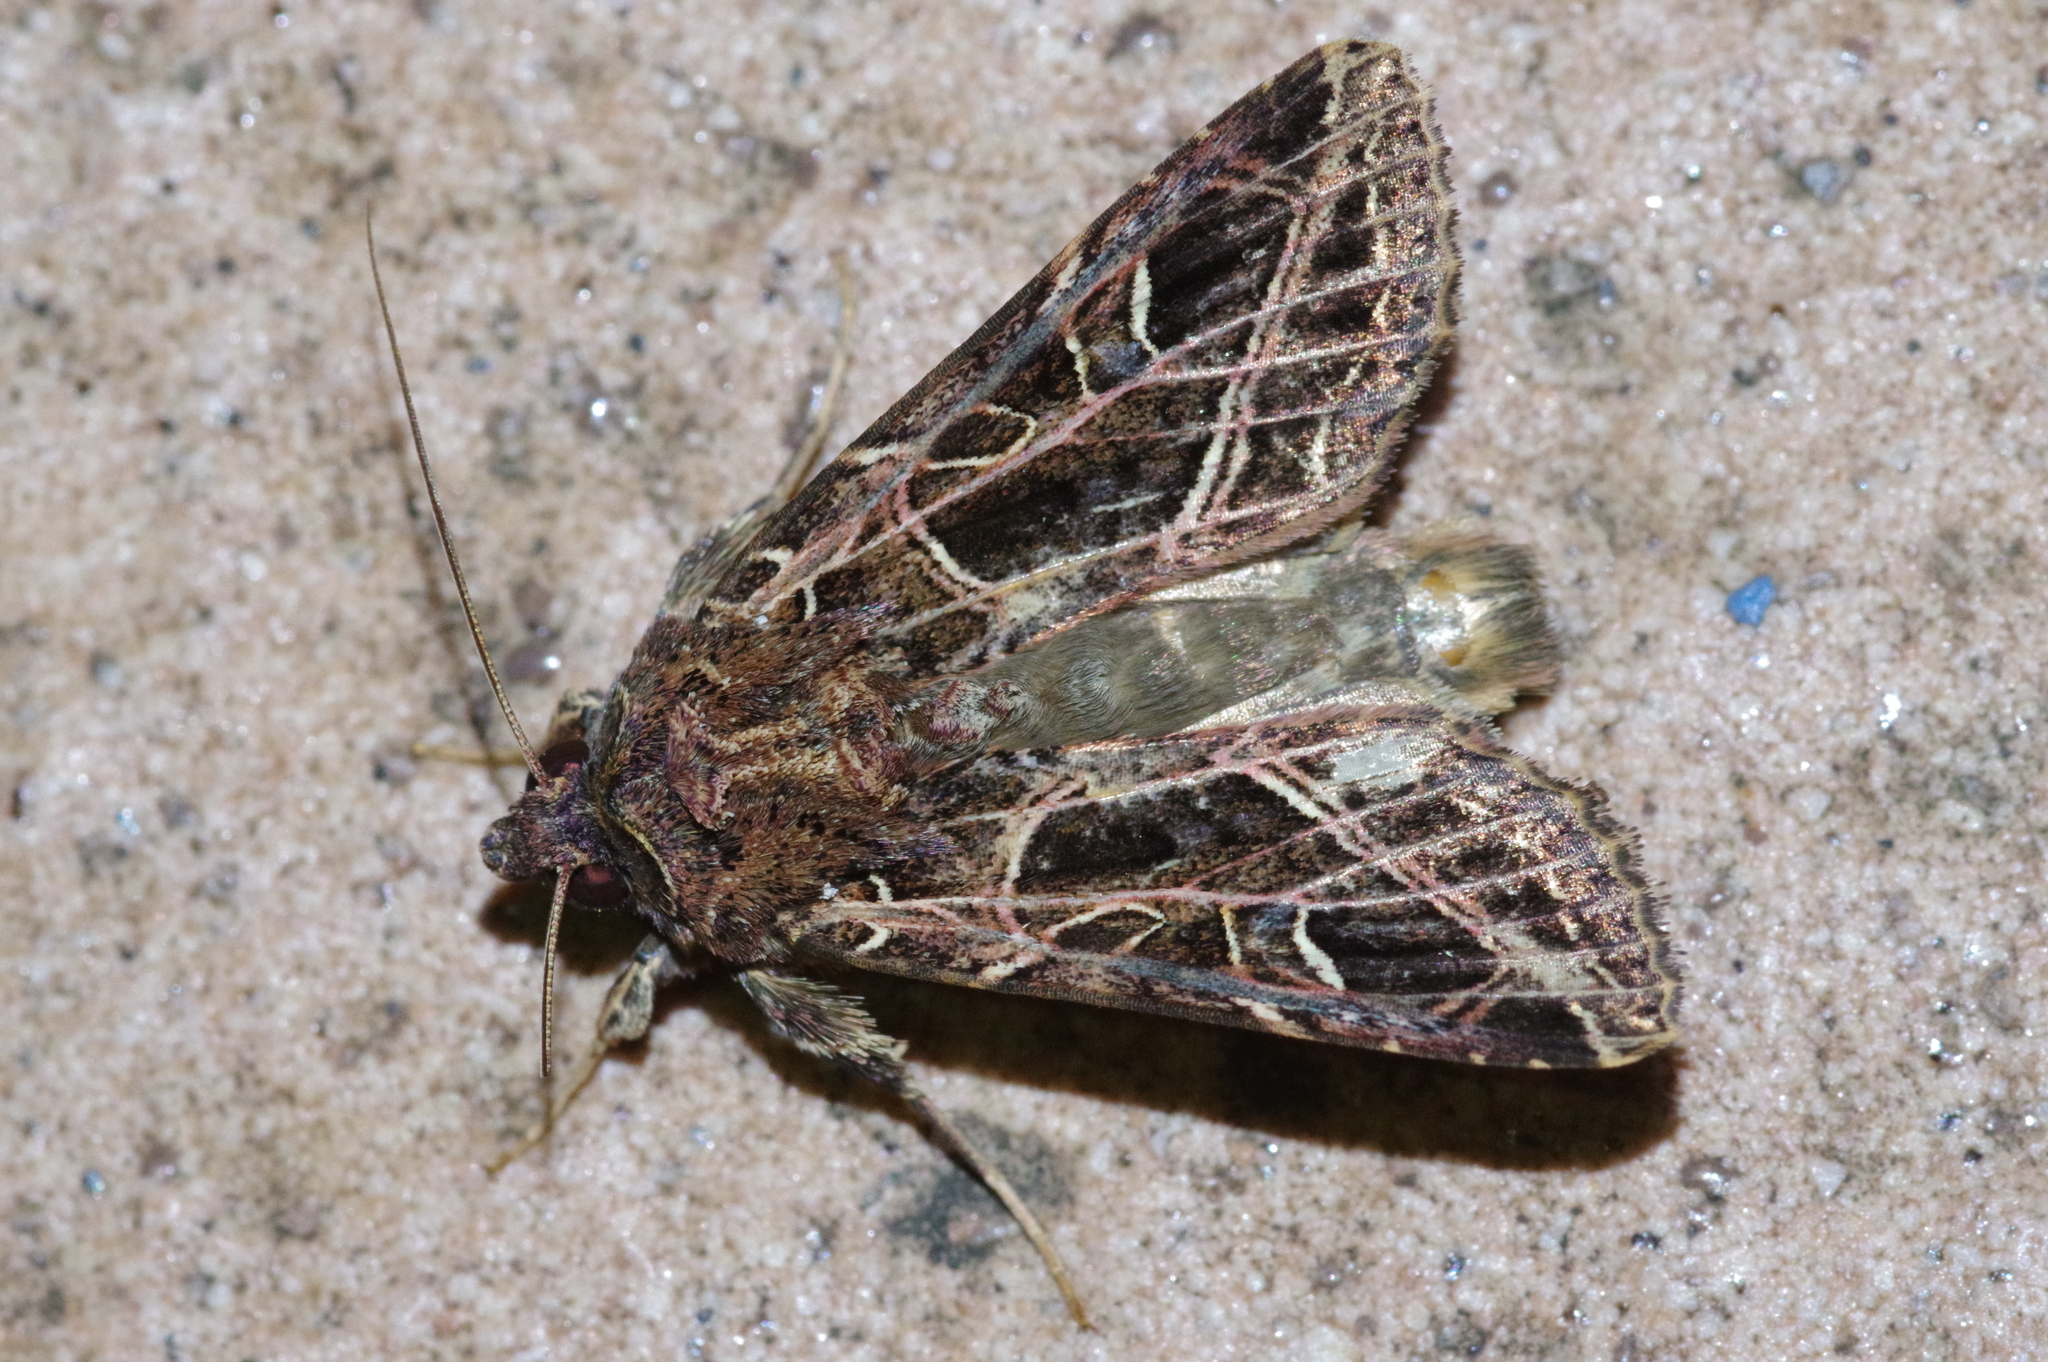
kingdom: Animalia
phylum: Arthropoda
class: Insecta
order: Lepidoptera
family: Noctuidae
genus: Dictyestra
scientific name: Dictyestra dissectus
